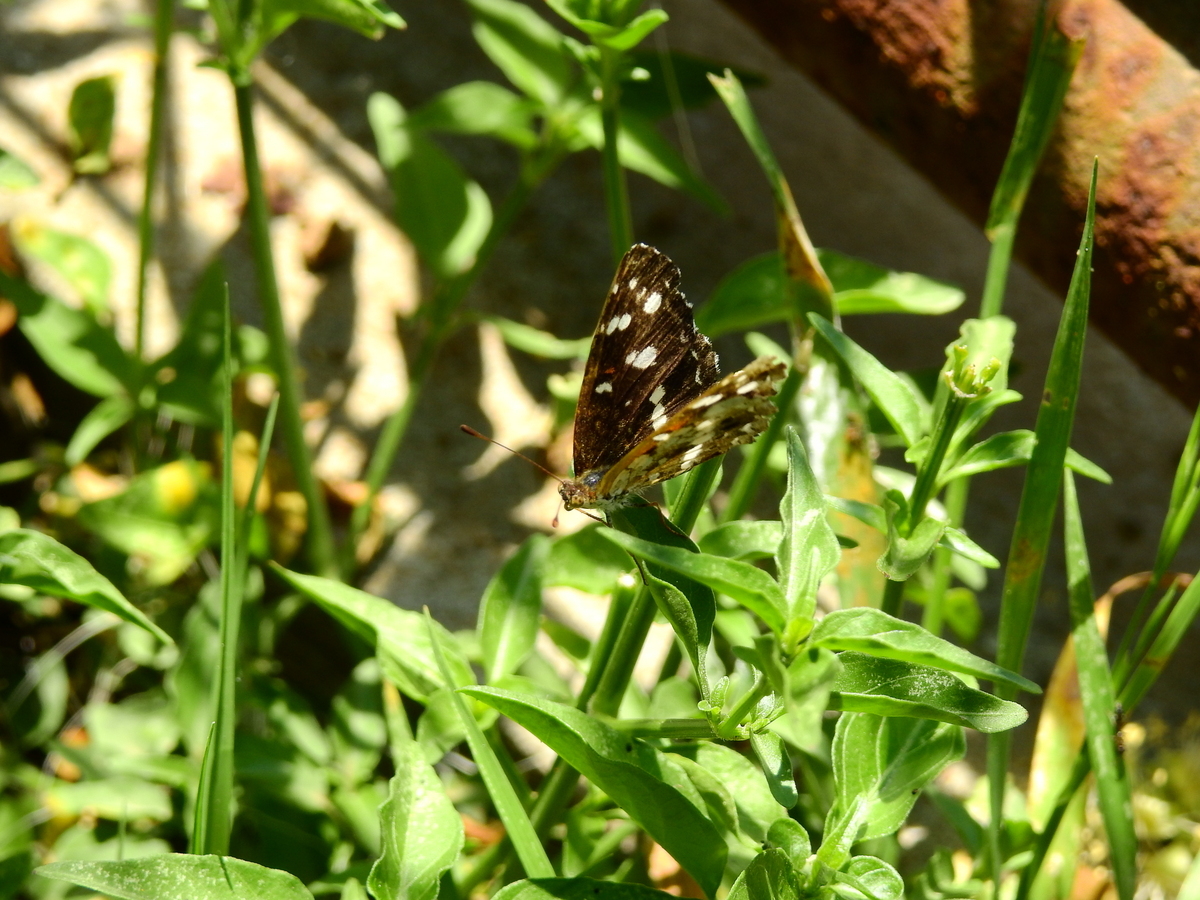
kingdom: Animalia
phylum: Arthropoda
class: Insecta
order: Lepidoptera
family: Nymphalidae
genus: Ortilia
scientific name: Ortilia ithra
